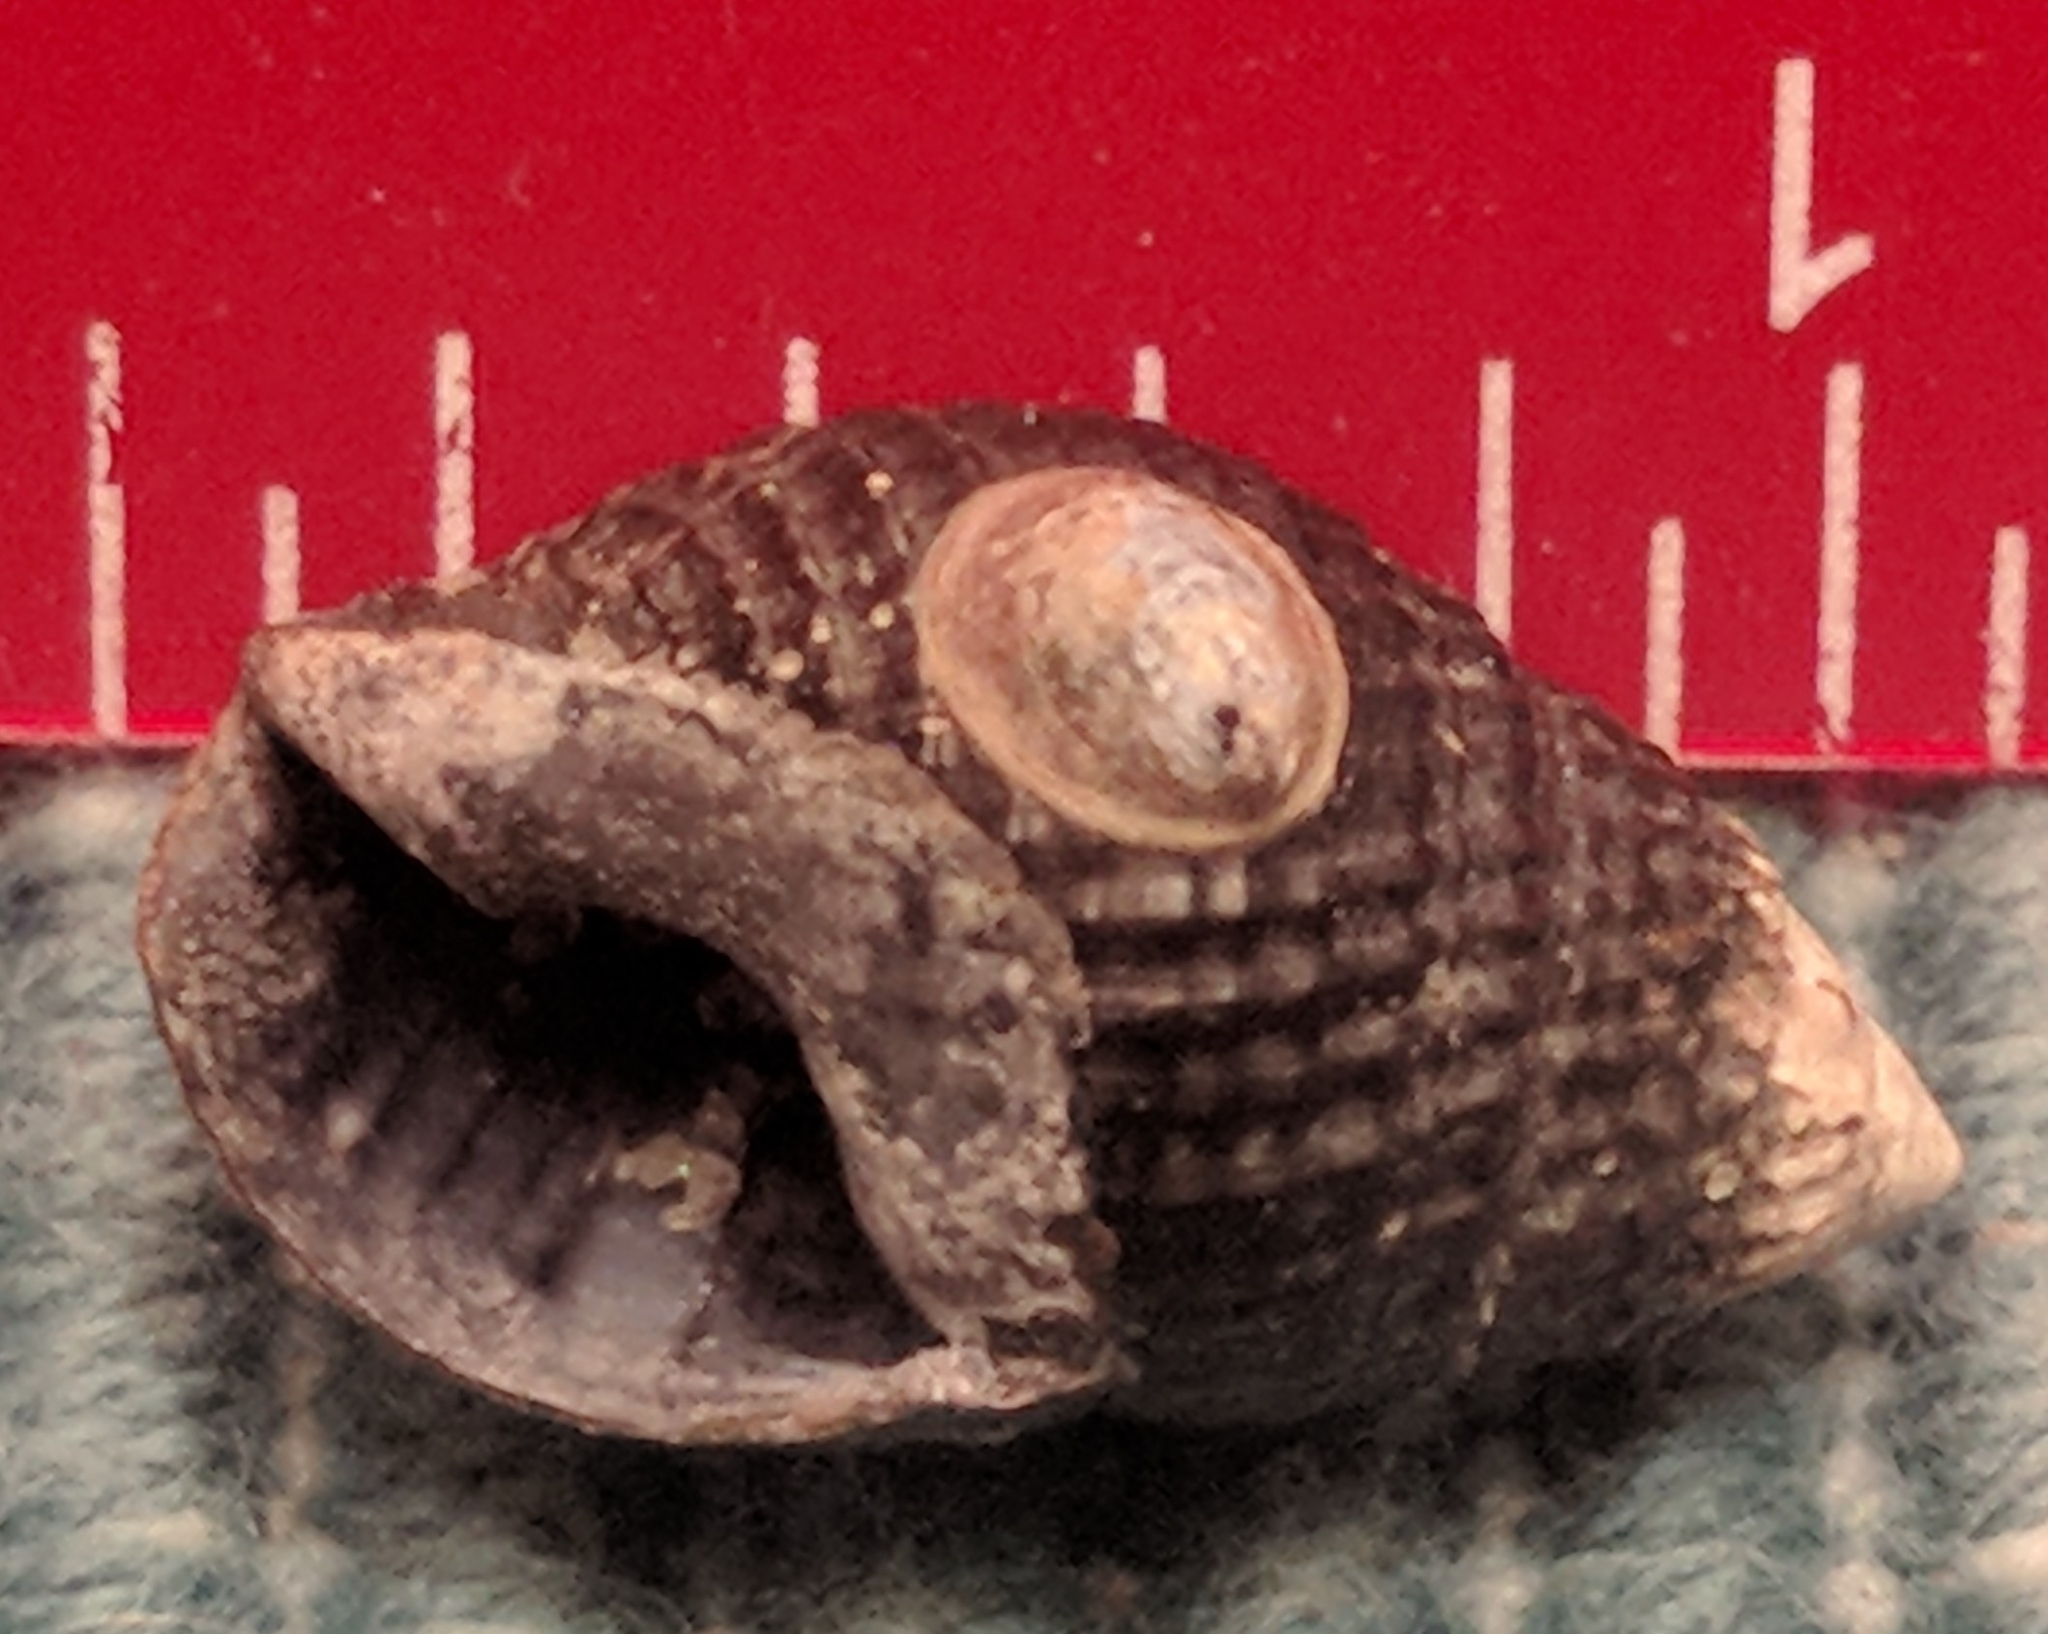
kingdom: Animalia
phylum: Mollusca
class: Gastropoda
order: Neogastropoda
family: Nassariidae
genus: Ilyanassa
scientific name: Ilyanassa obsoleta
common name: Eastern mudsnail
